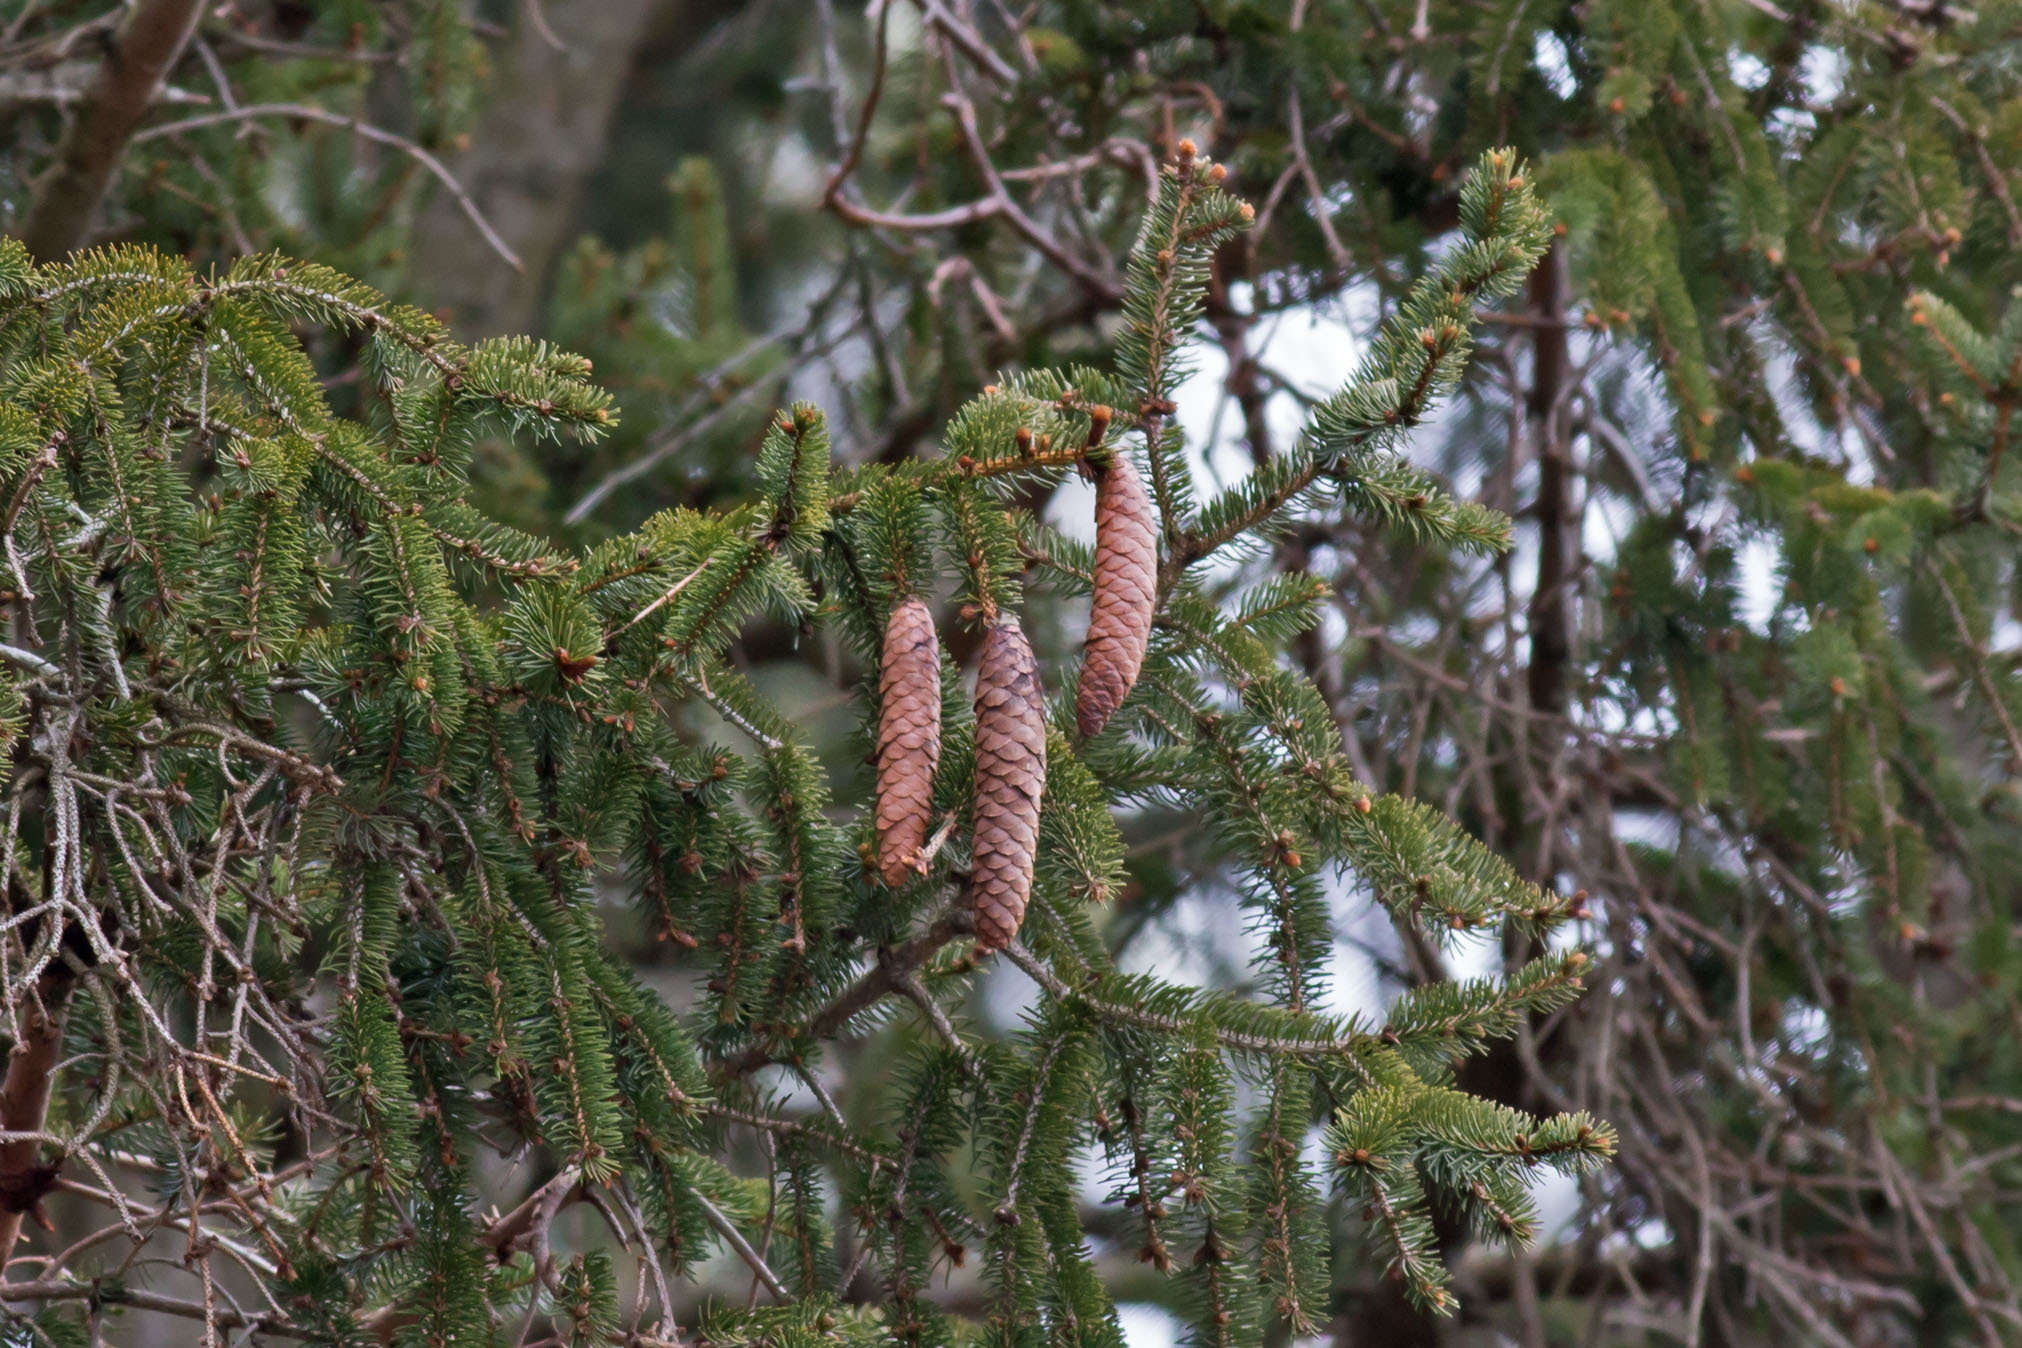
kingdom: Plantae
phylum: Tracheophyta
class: Pinopsida
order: Pinales
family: Pinaceae
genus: Picea
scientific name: Picea abies
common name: Norway spruce
